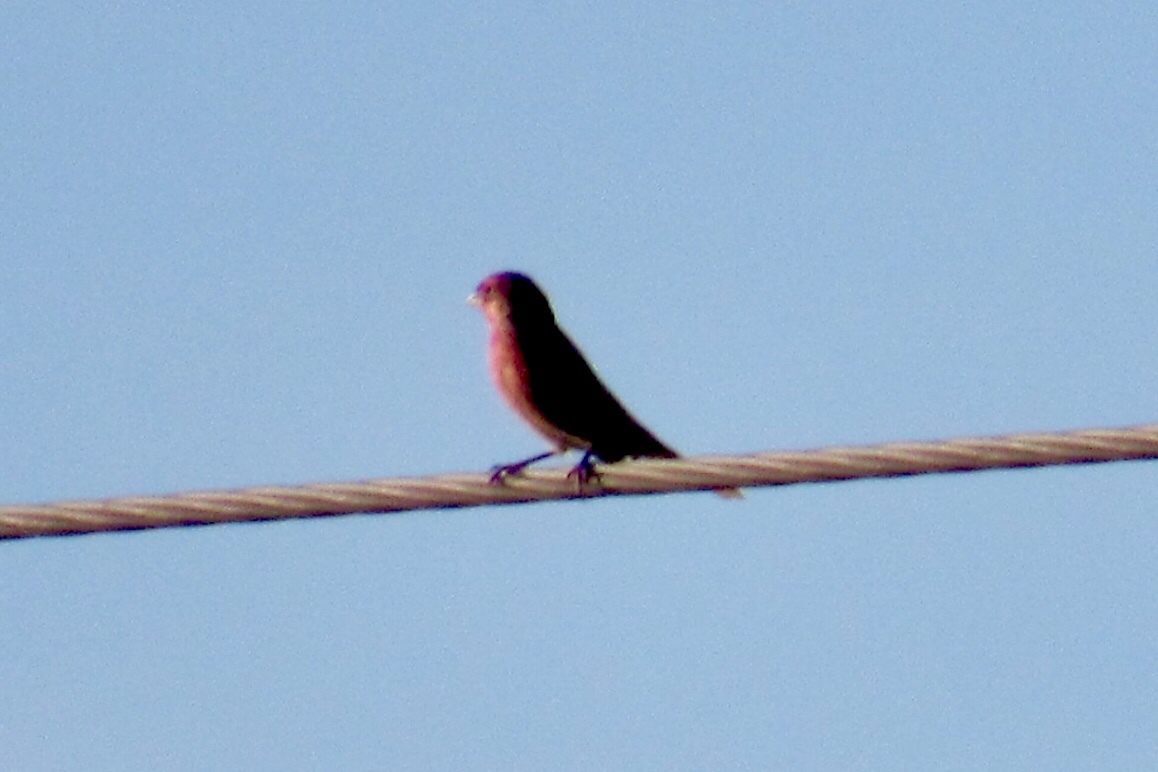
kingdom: Animalia
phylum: Chordata
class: Aves
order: Passeriformes
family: Fringillidae
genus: Haemorhous
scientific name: Haemorhous mexicanus
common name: House finch
